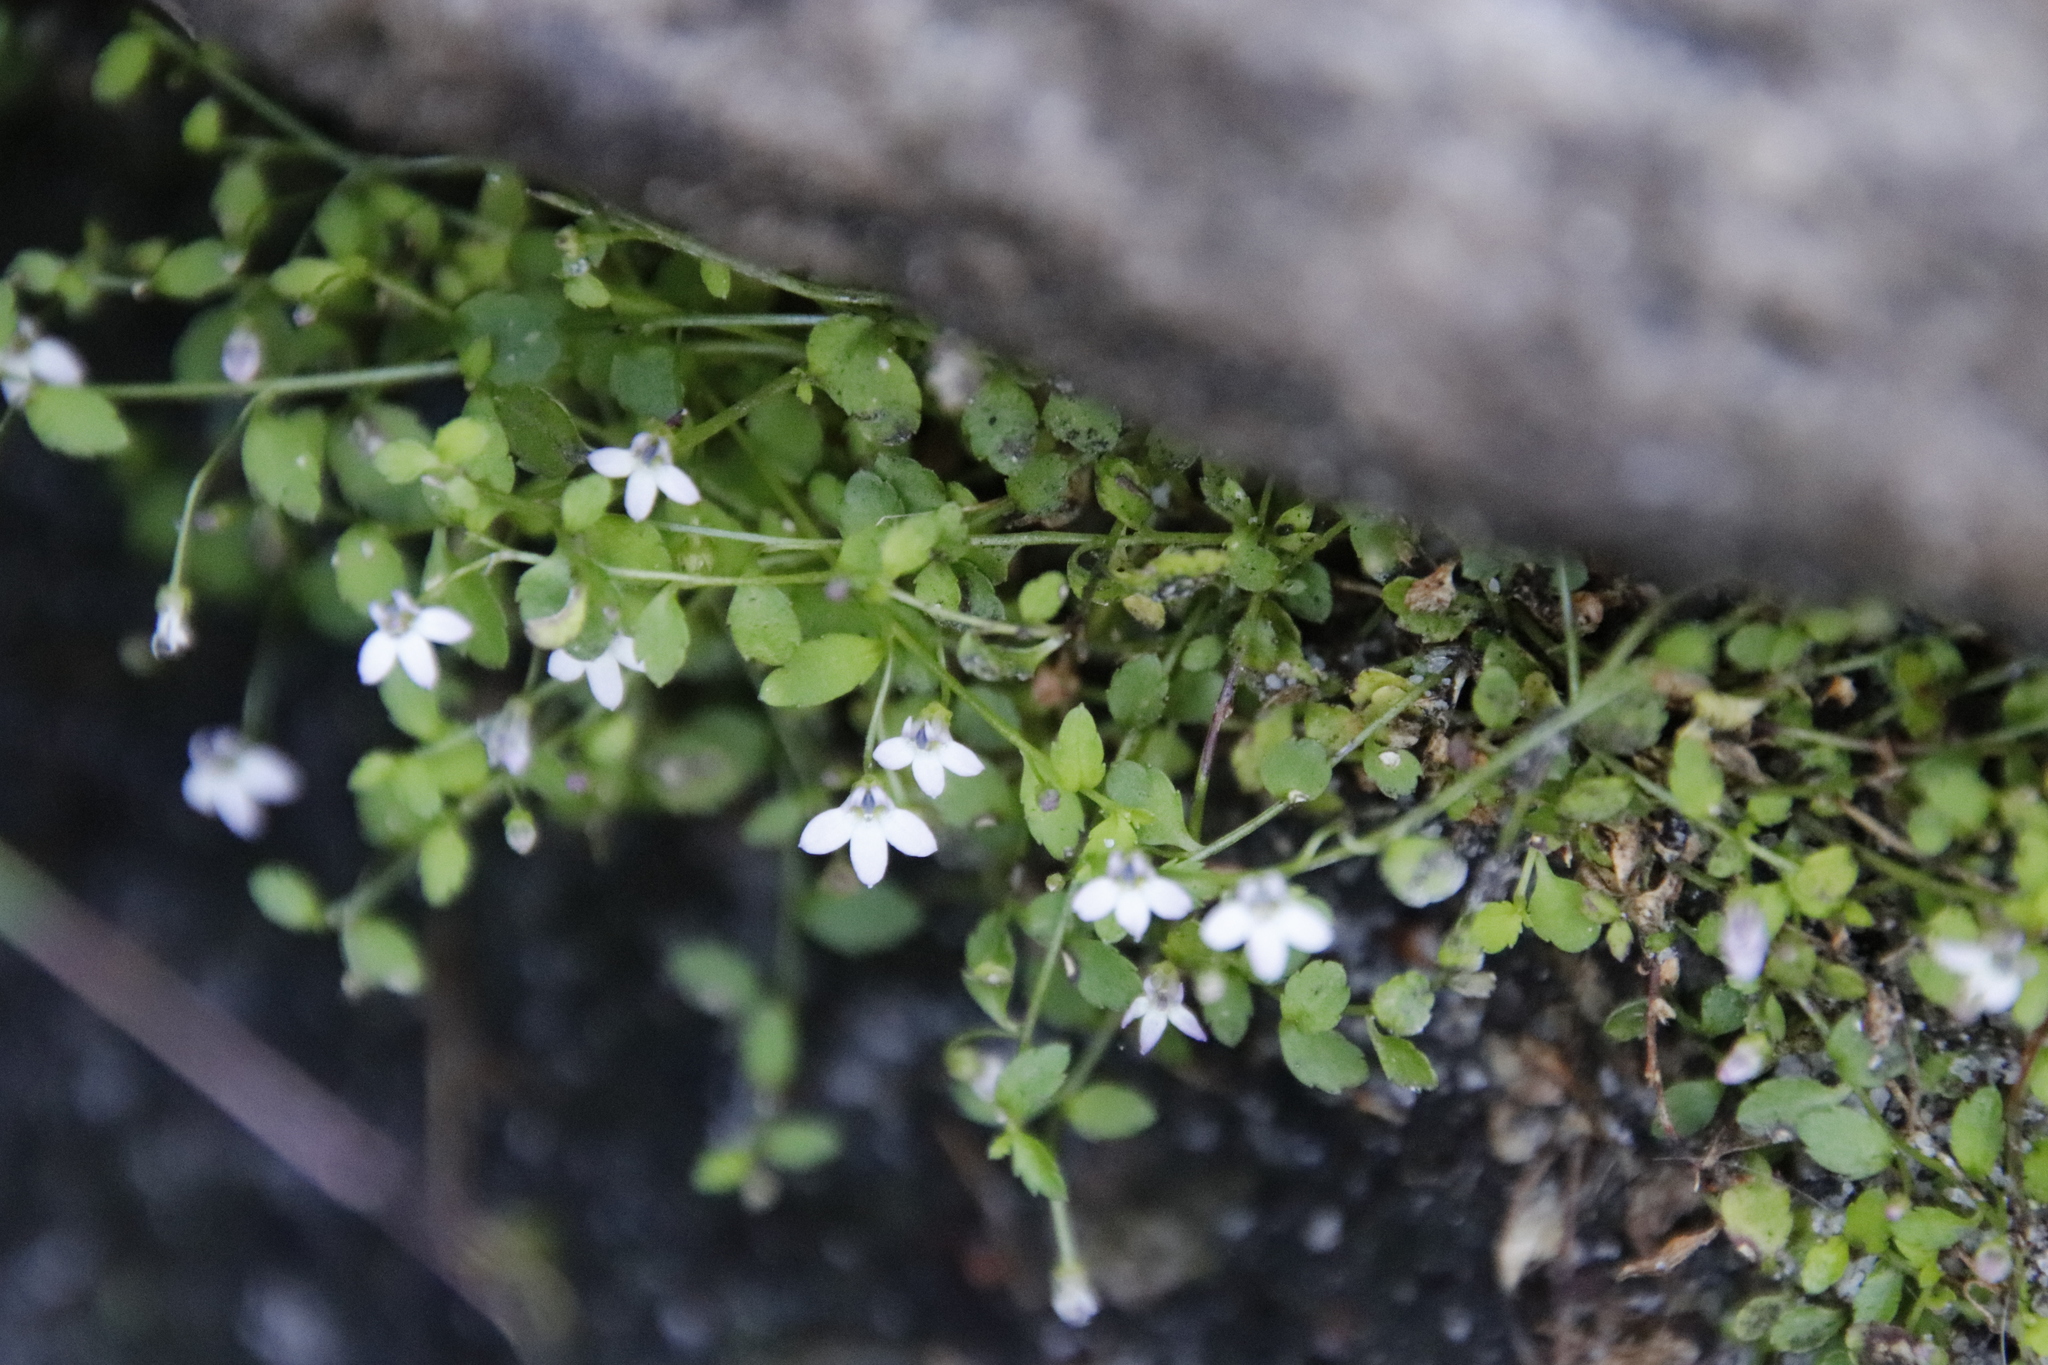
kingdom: Plantae
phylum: Tracheophyta
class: Magnoliopsida
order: Asterales
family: Campanulaceae
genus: Unigenes
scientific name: Unigenes humifusa
